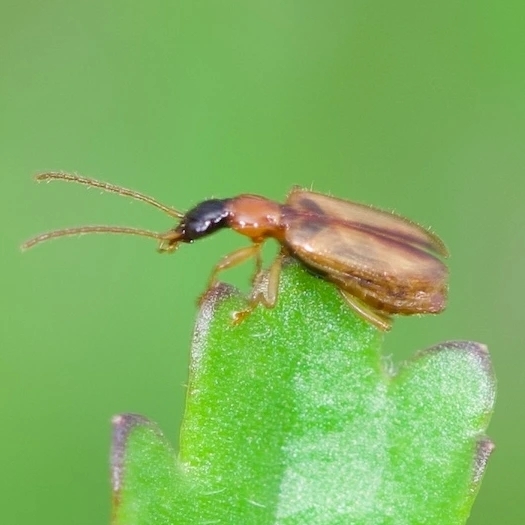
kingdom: Animalia
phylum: Arthropoda
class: Insecta
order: Coleoptera
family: Carabidae
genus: Demetrias
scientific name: Demetrias atricapillus
